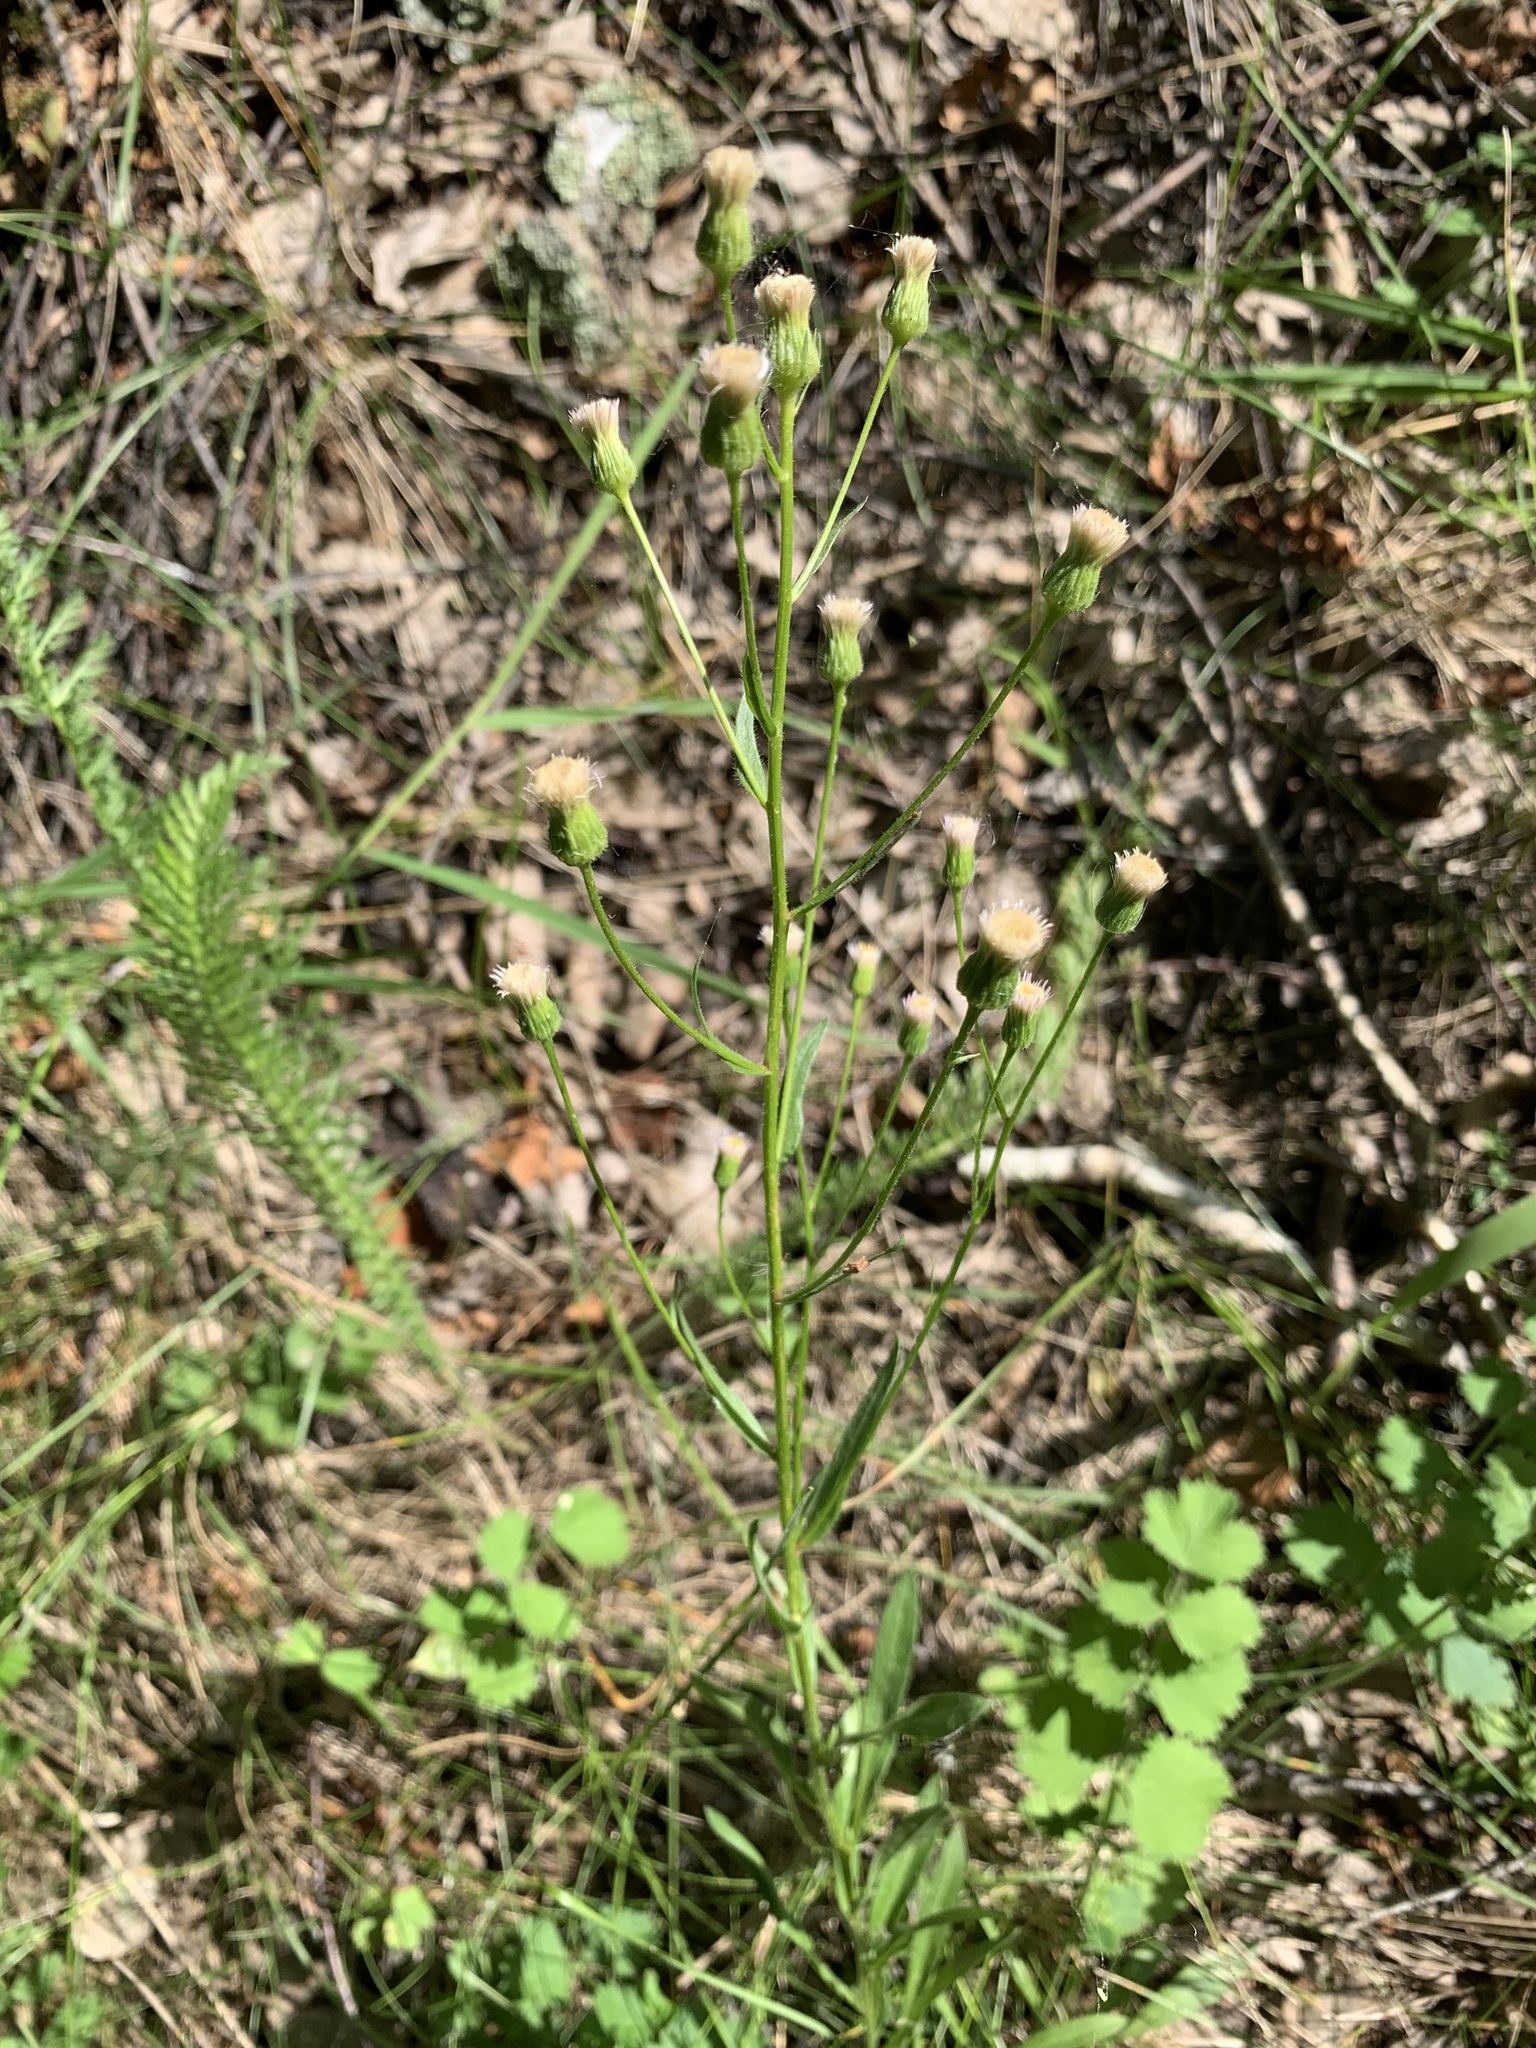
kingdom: Plantae
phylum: Tracheophyta
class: Magnoliopsida
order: Asterales
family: Asteraceae
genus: Erigeron
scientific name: Erigeron acris
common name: Blue fleabane
